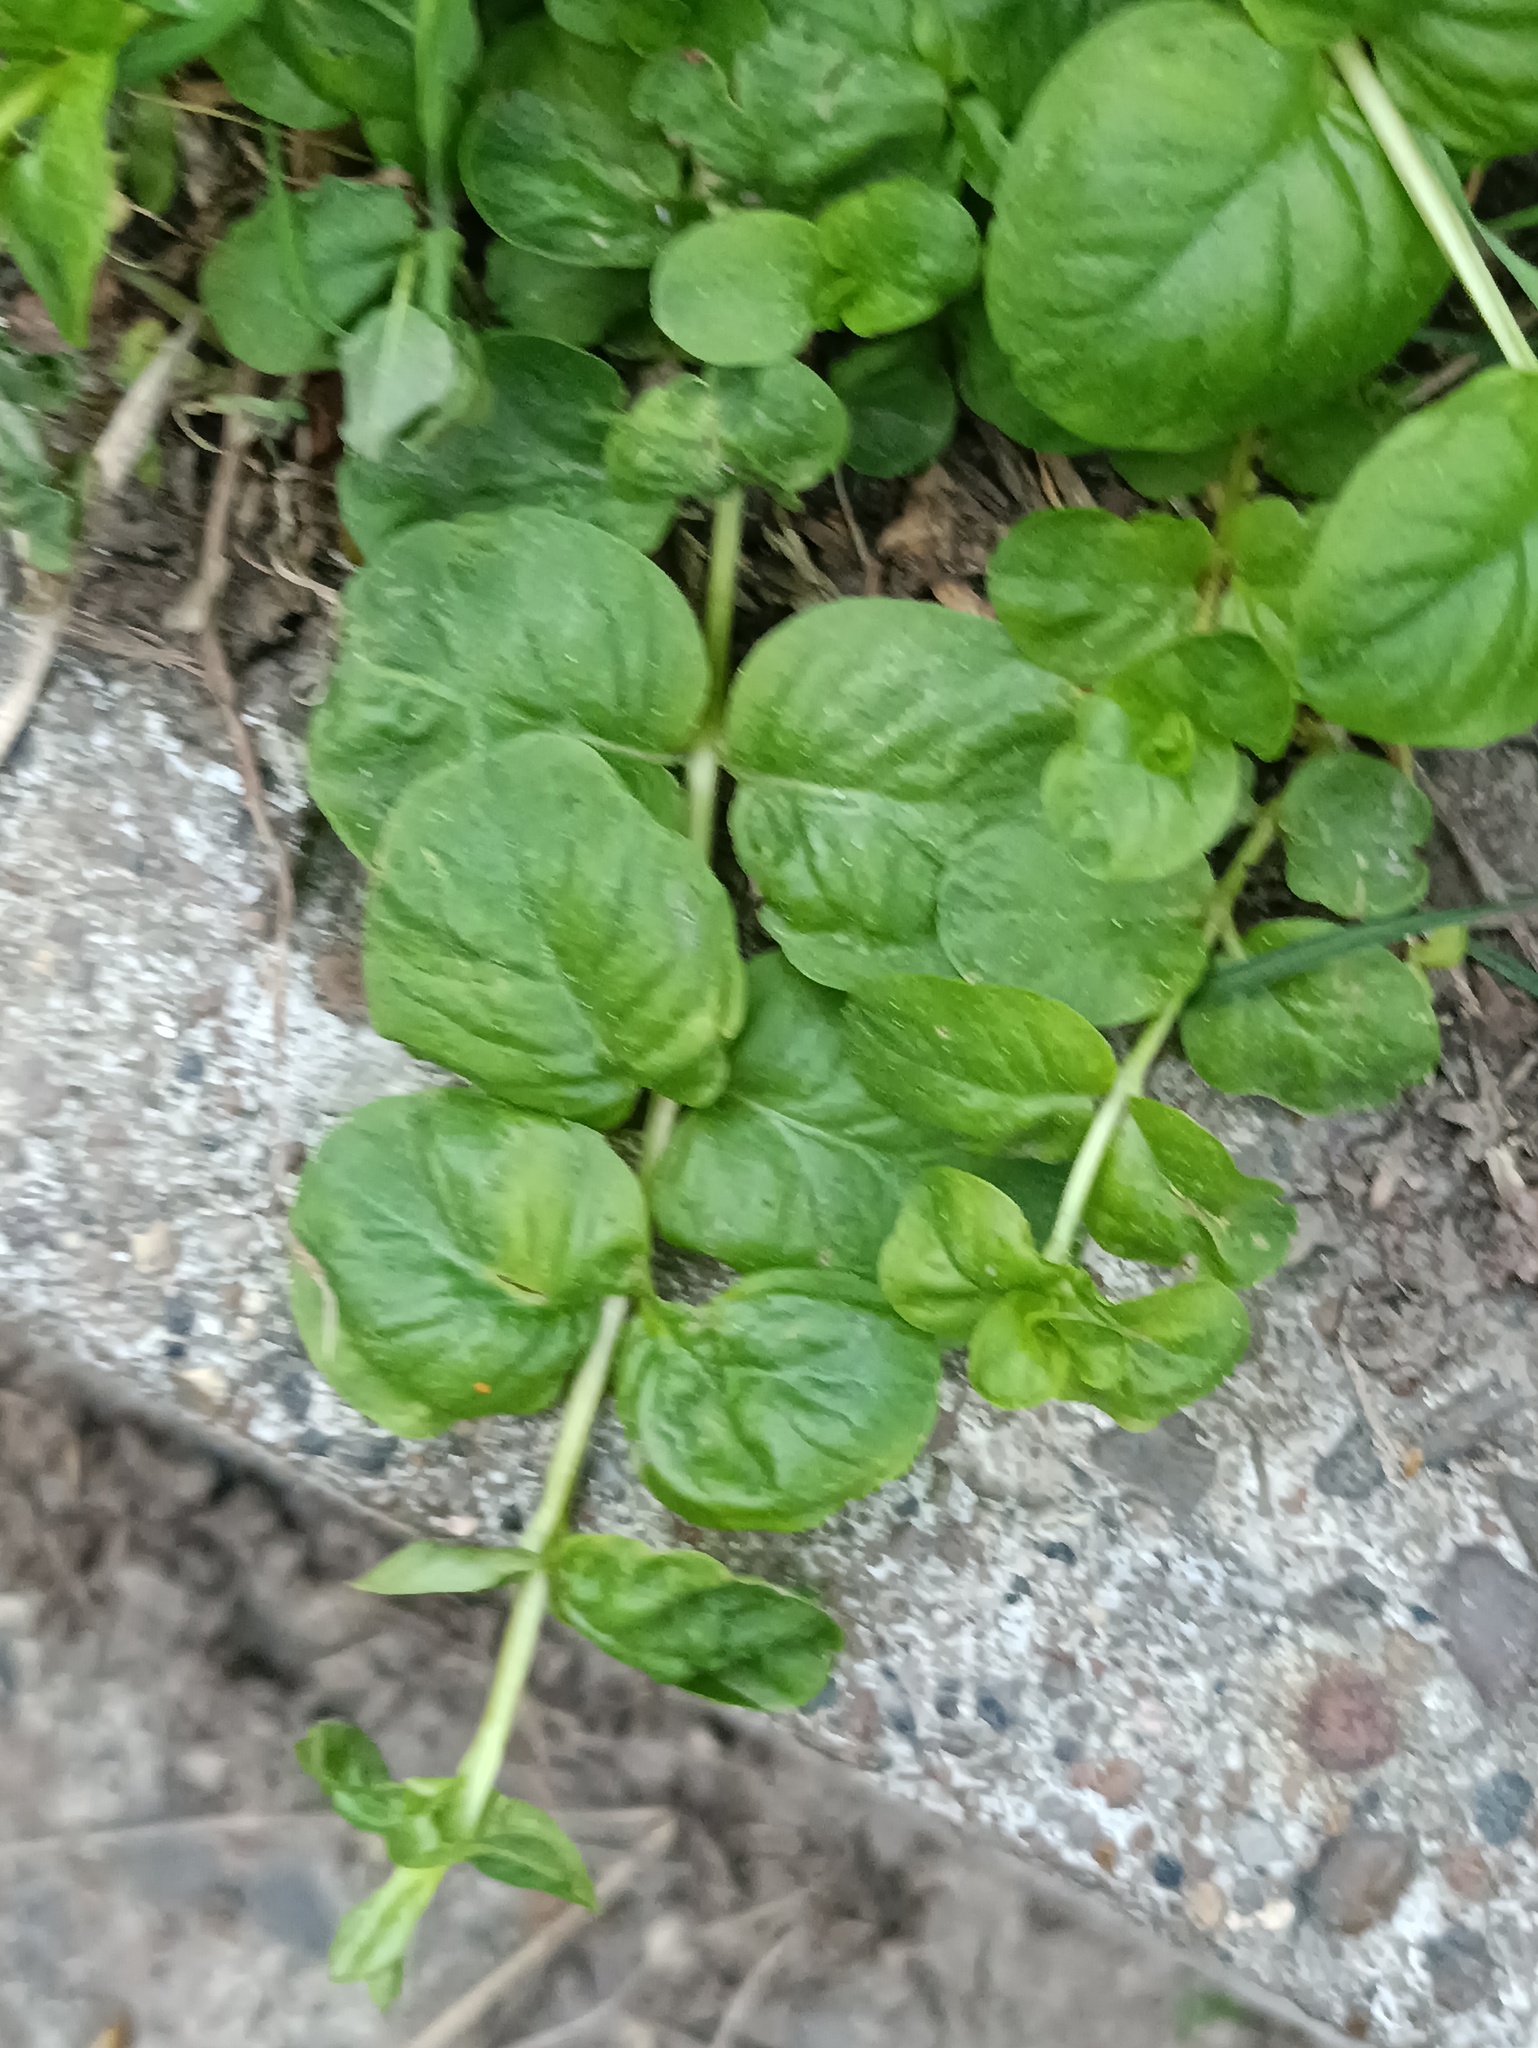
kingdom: Plantae
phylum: Tracheophyta
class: Magnoliopsida
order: Ericales
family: Primulaceae
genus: Lysimachia
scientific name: Lysimachia nummularia
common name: Moneywort
